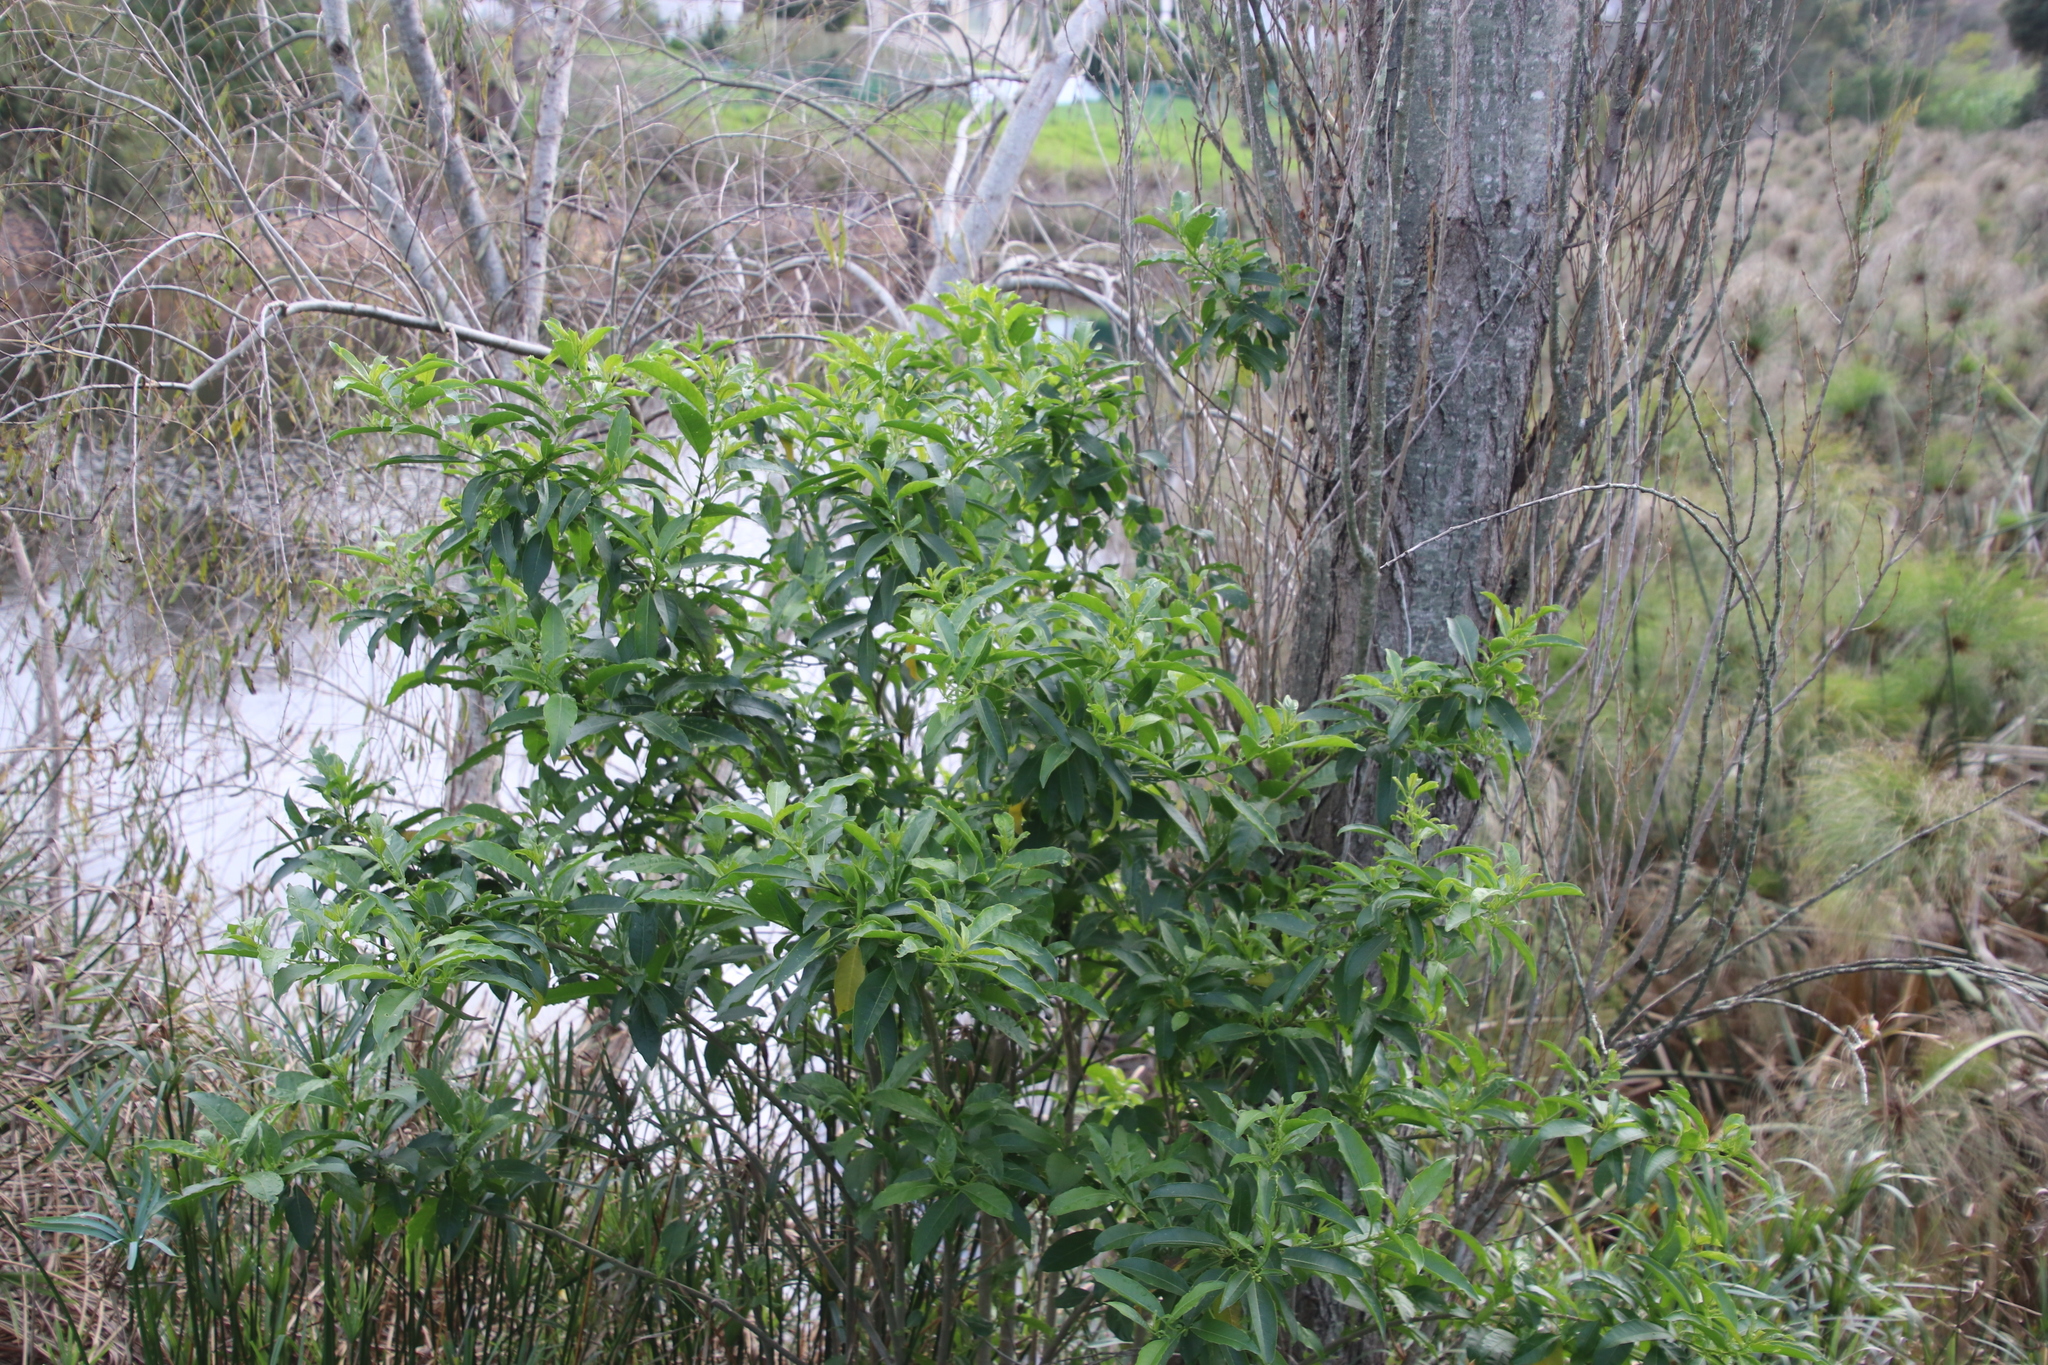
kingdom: Plantae
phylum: Tracheophyta
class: Magnoliopsida
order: Solanales
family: Solanaceae
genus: Cestrum
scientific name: Cestrum laevigatum
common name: Inkberry
